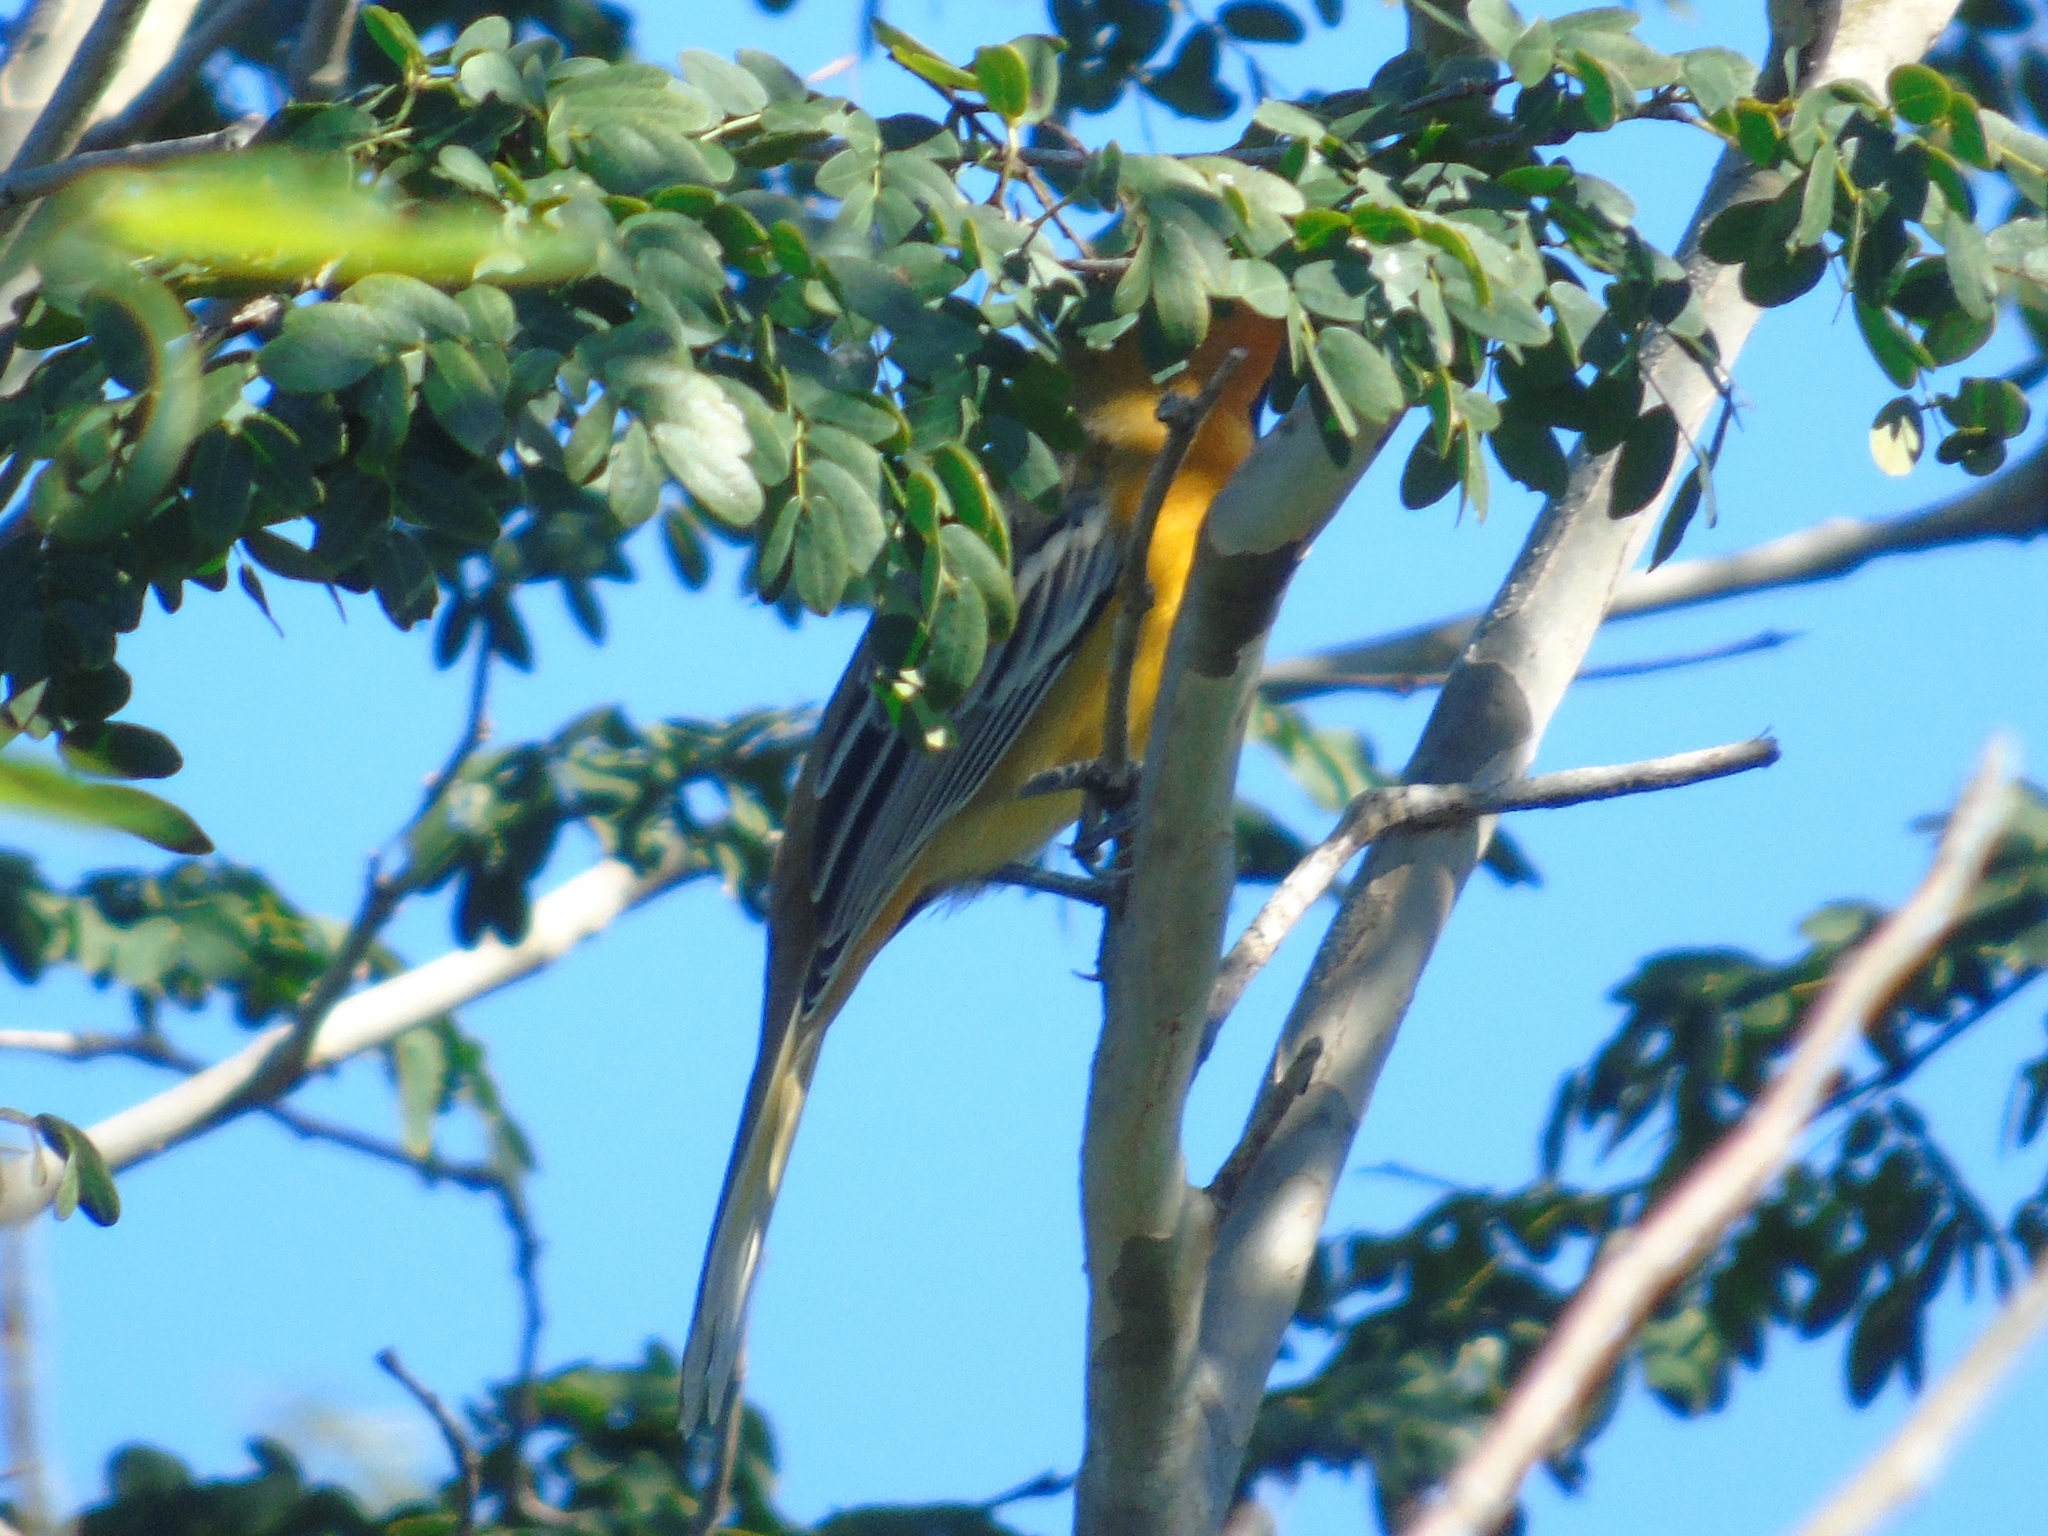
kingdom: Animalia
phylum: Chordata
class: Aves
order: Passeriformes
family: Icteridae
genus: Icterus
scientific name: Icterus pustulatus
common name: Streak-backed oriole
